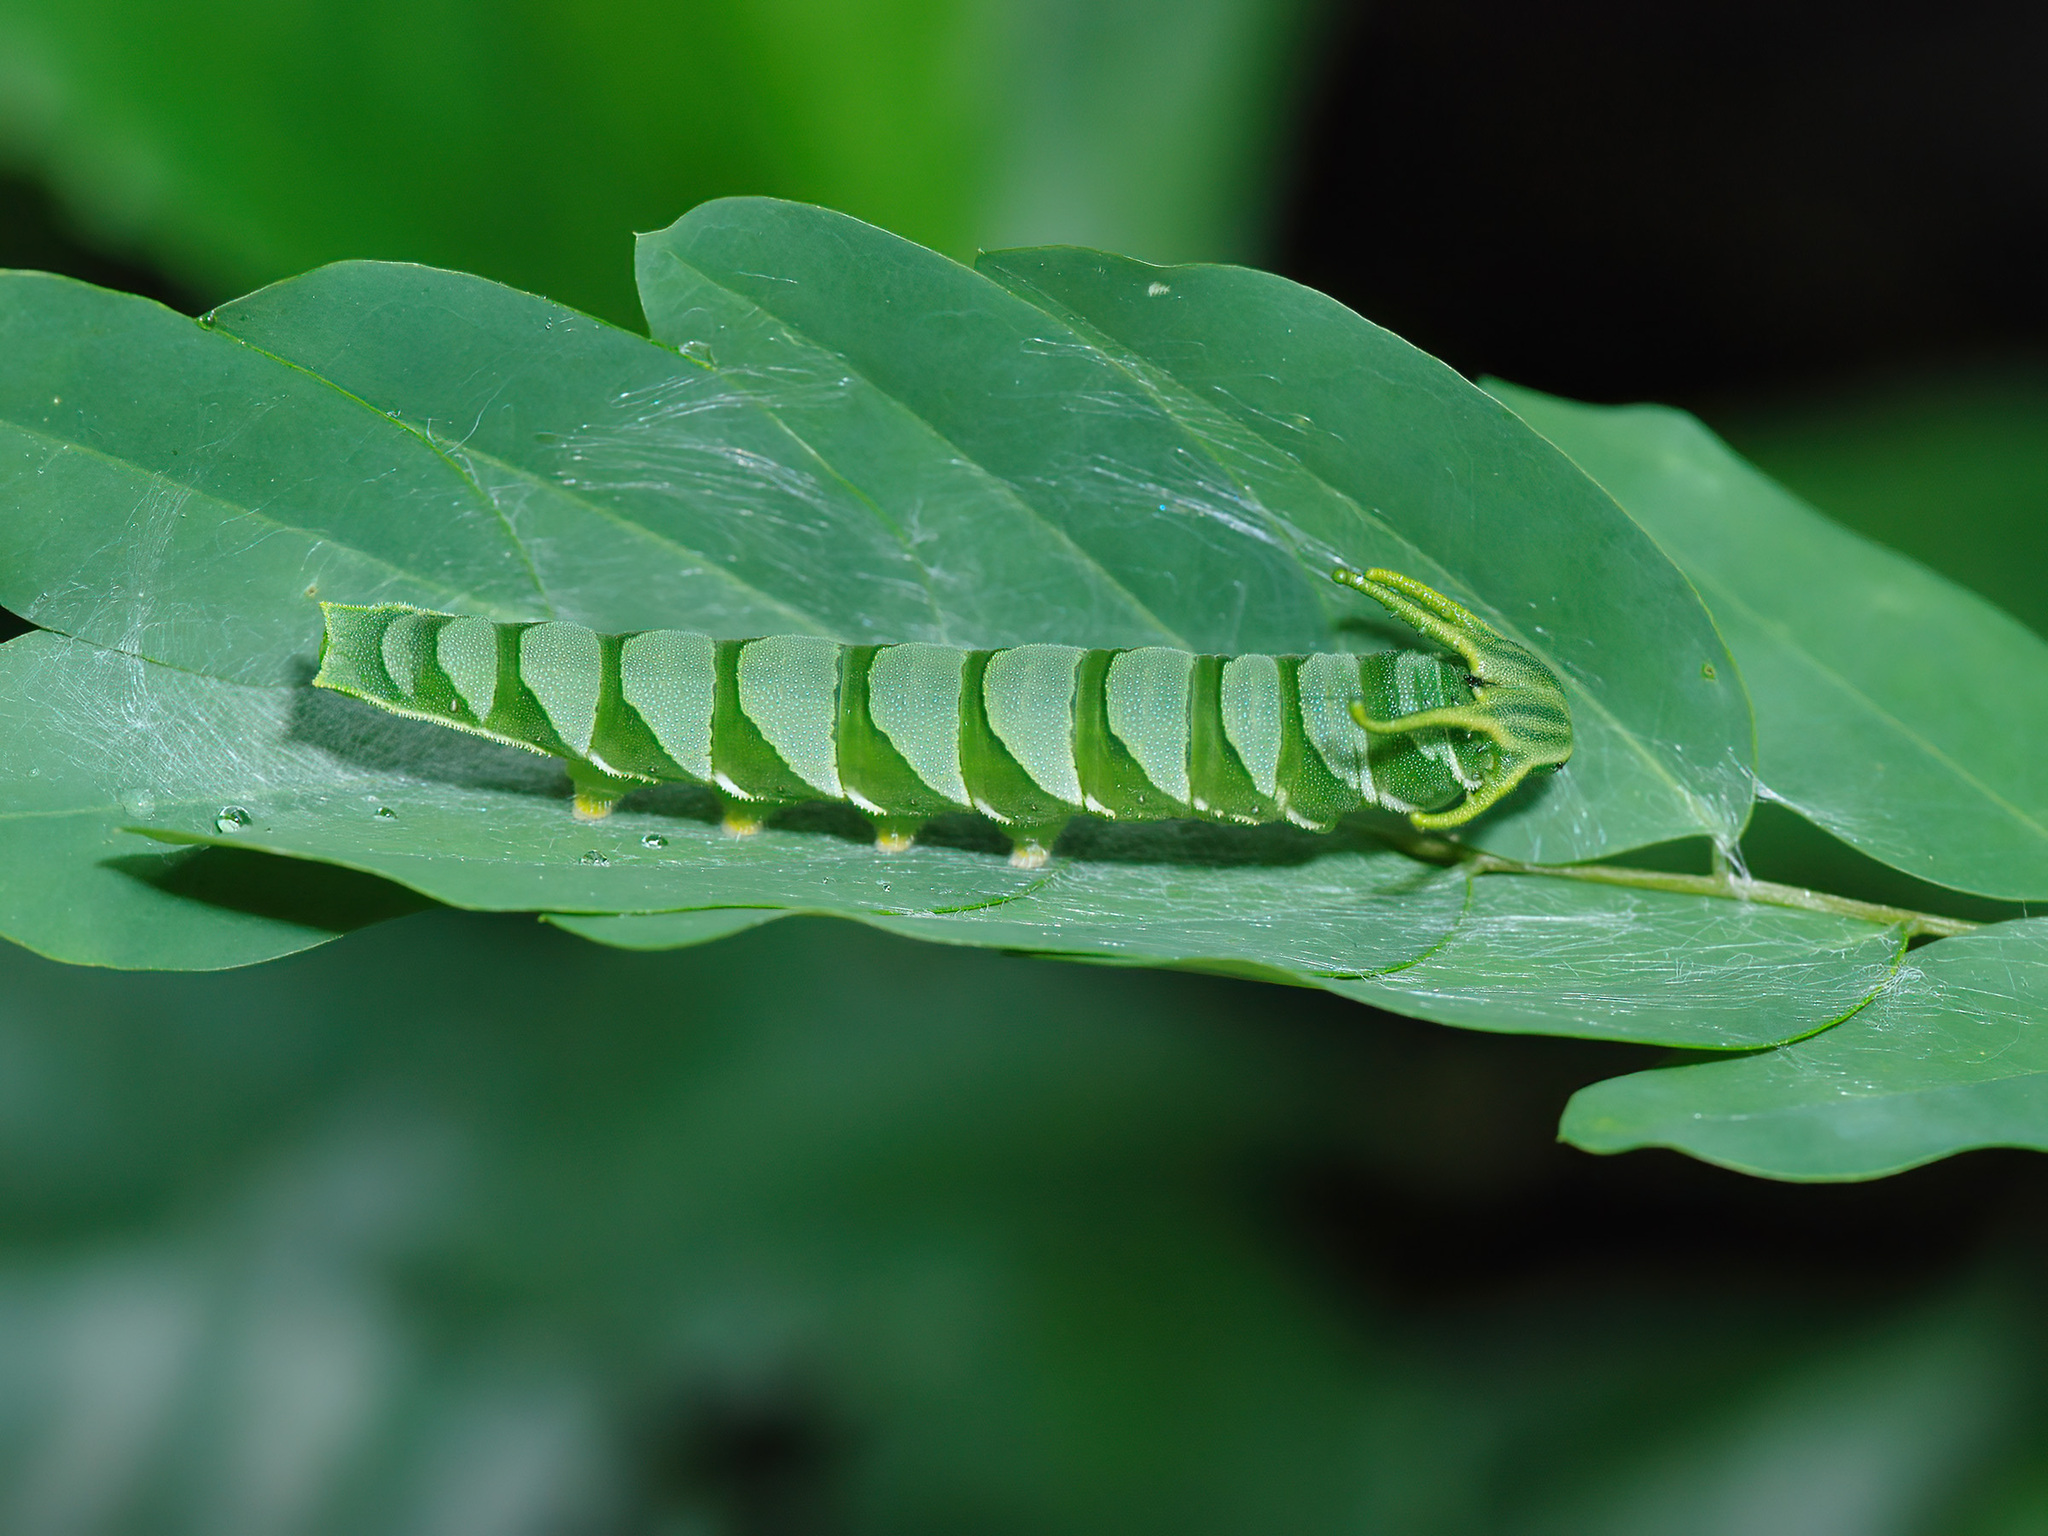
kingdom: Animalia
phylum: Arthropoda
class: Insecta
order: Lepidoptera
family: Nymphalidae
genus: Polyura
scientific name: Polyura hebe
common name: Plain nawab
